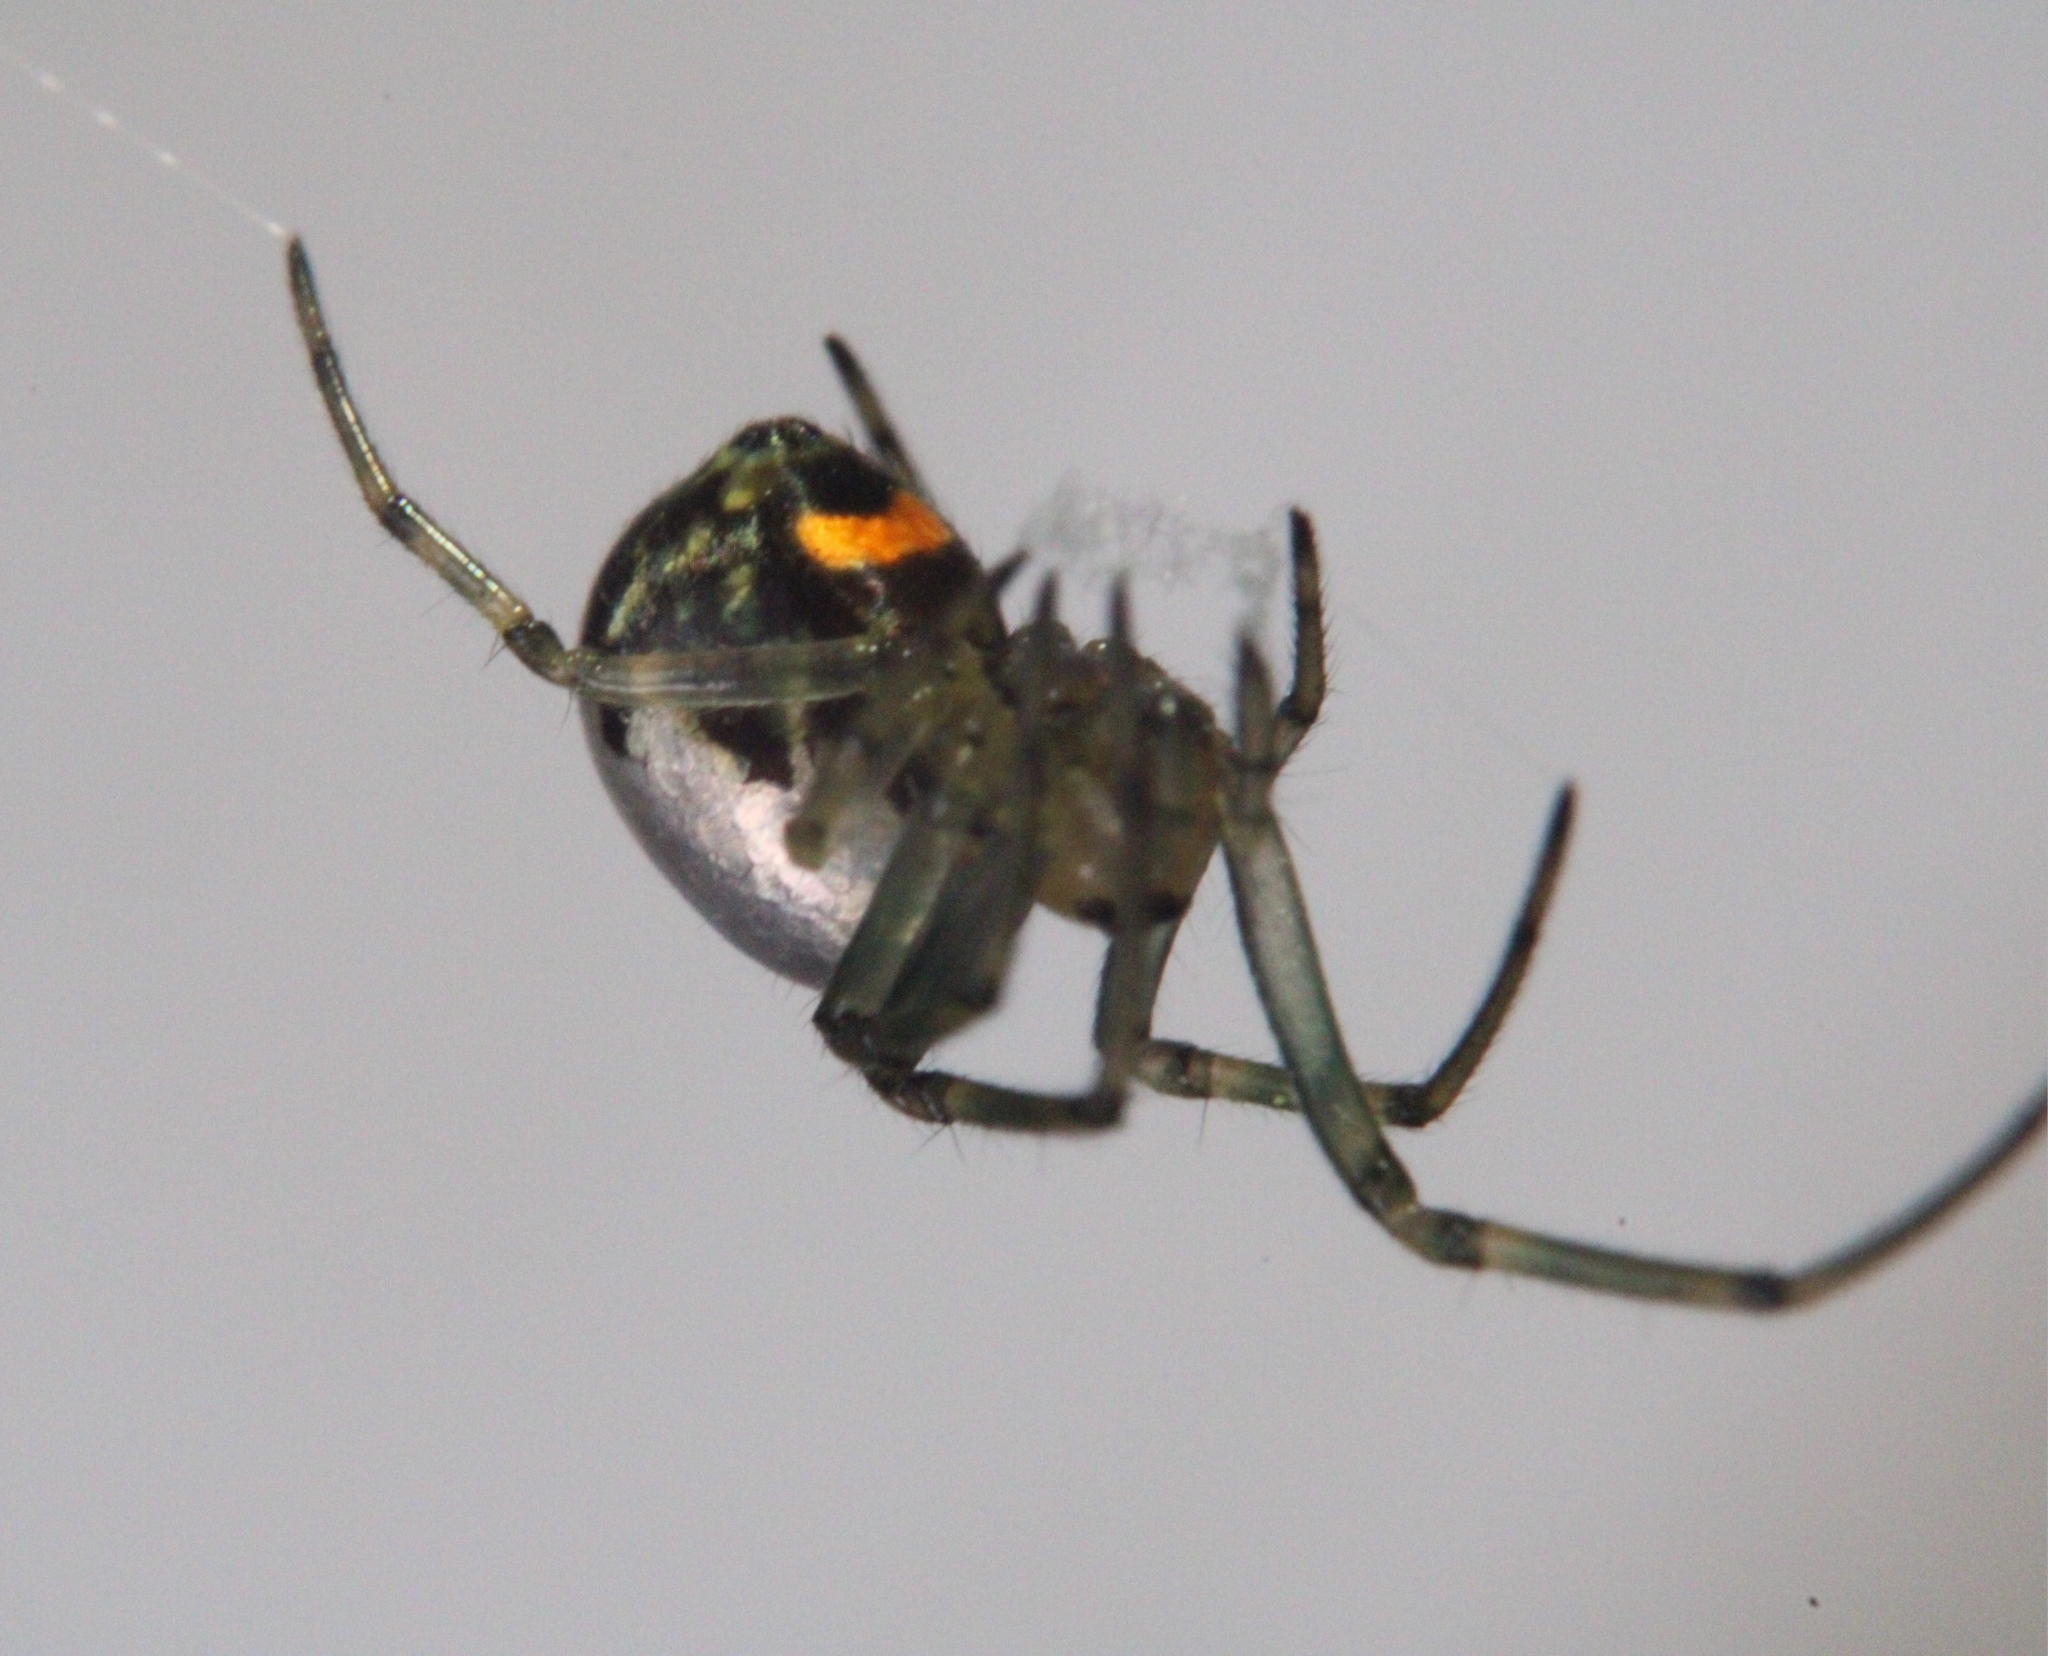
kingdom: Animalia
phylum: Arthropoda
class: Arachnida
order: Araneae
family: Tetragnathidae
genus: Leucauge
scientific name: Leucauge venusta
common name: Longjawed orb weavers
